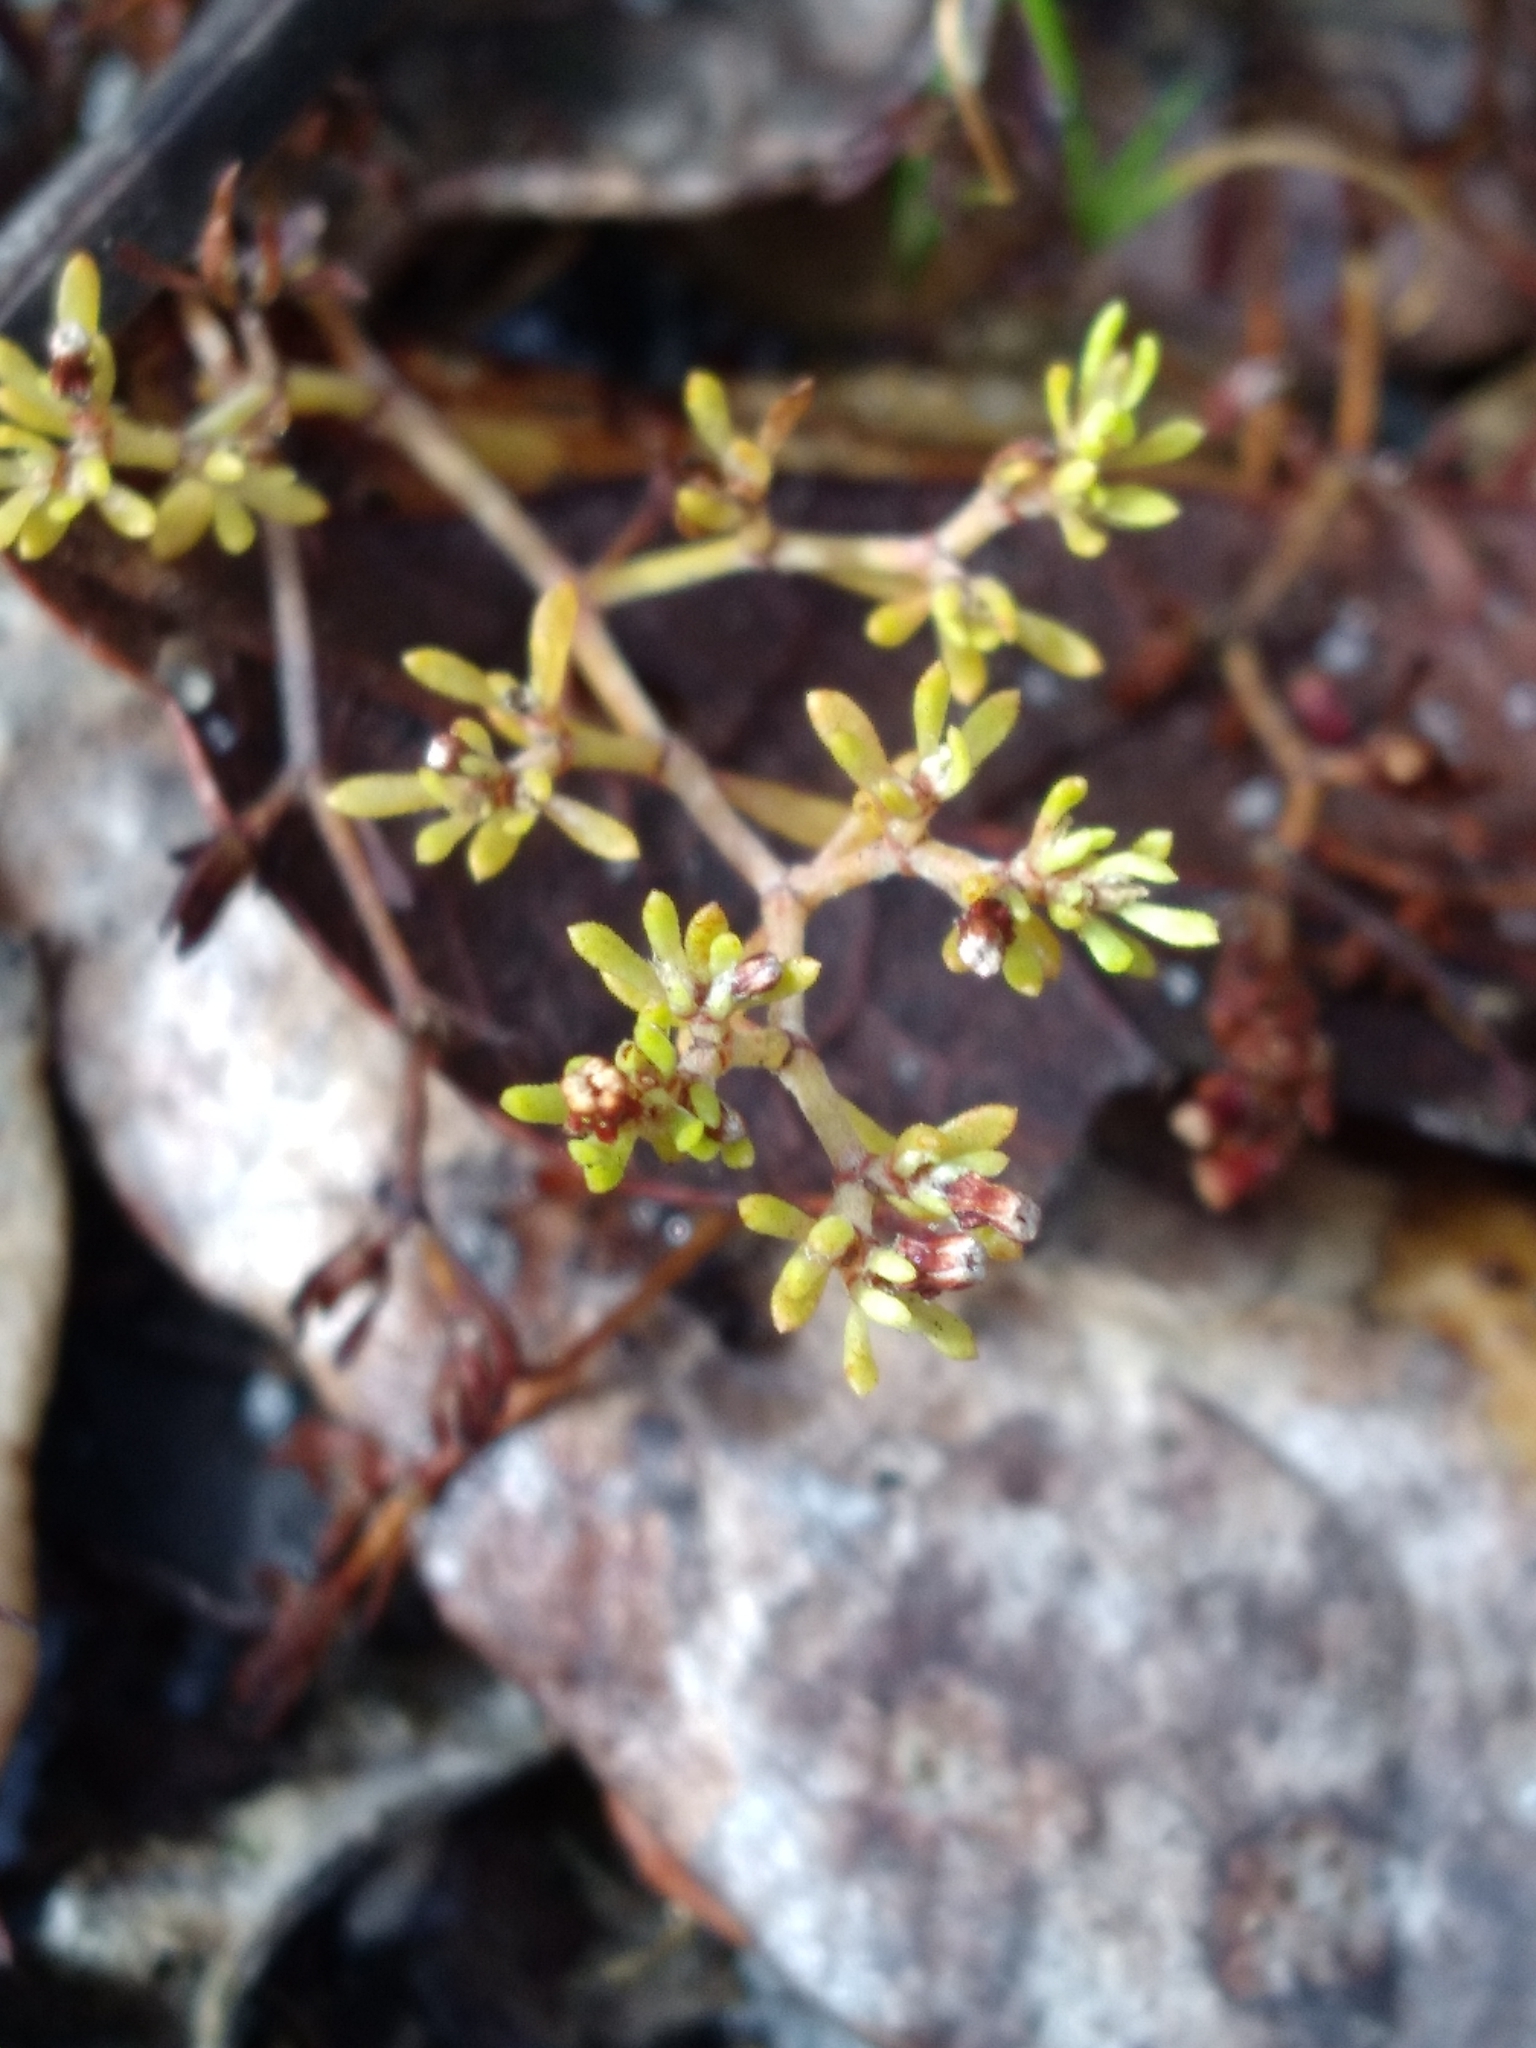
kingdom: Plantae
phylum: Tracheophyta
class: Magnoliopsida
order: Caryophyllales
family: Caryophyllaceae
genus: Paronychia
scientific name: Paronychia discoveryi
